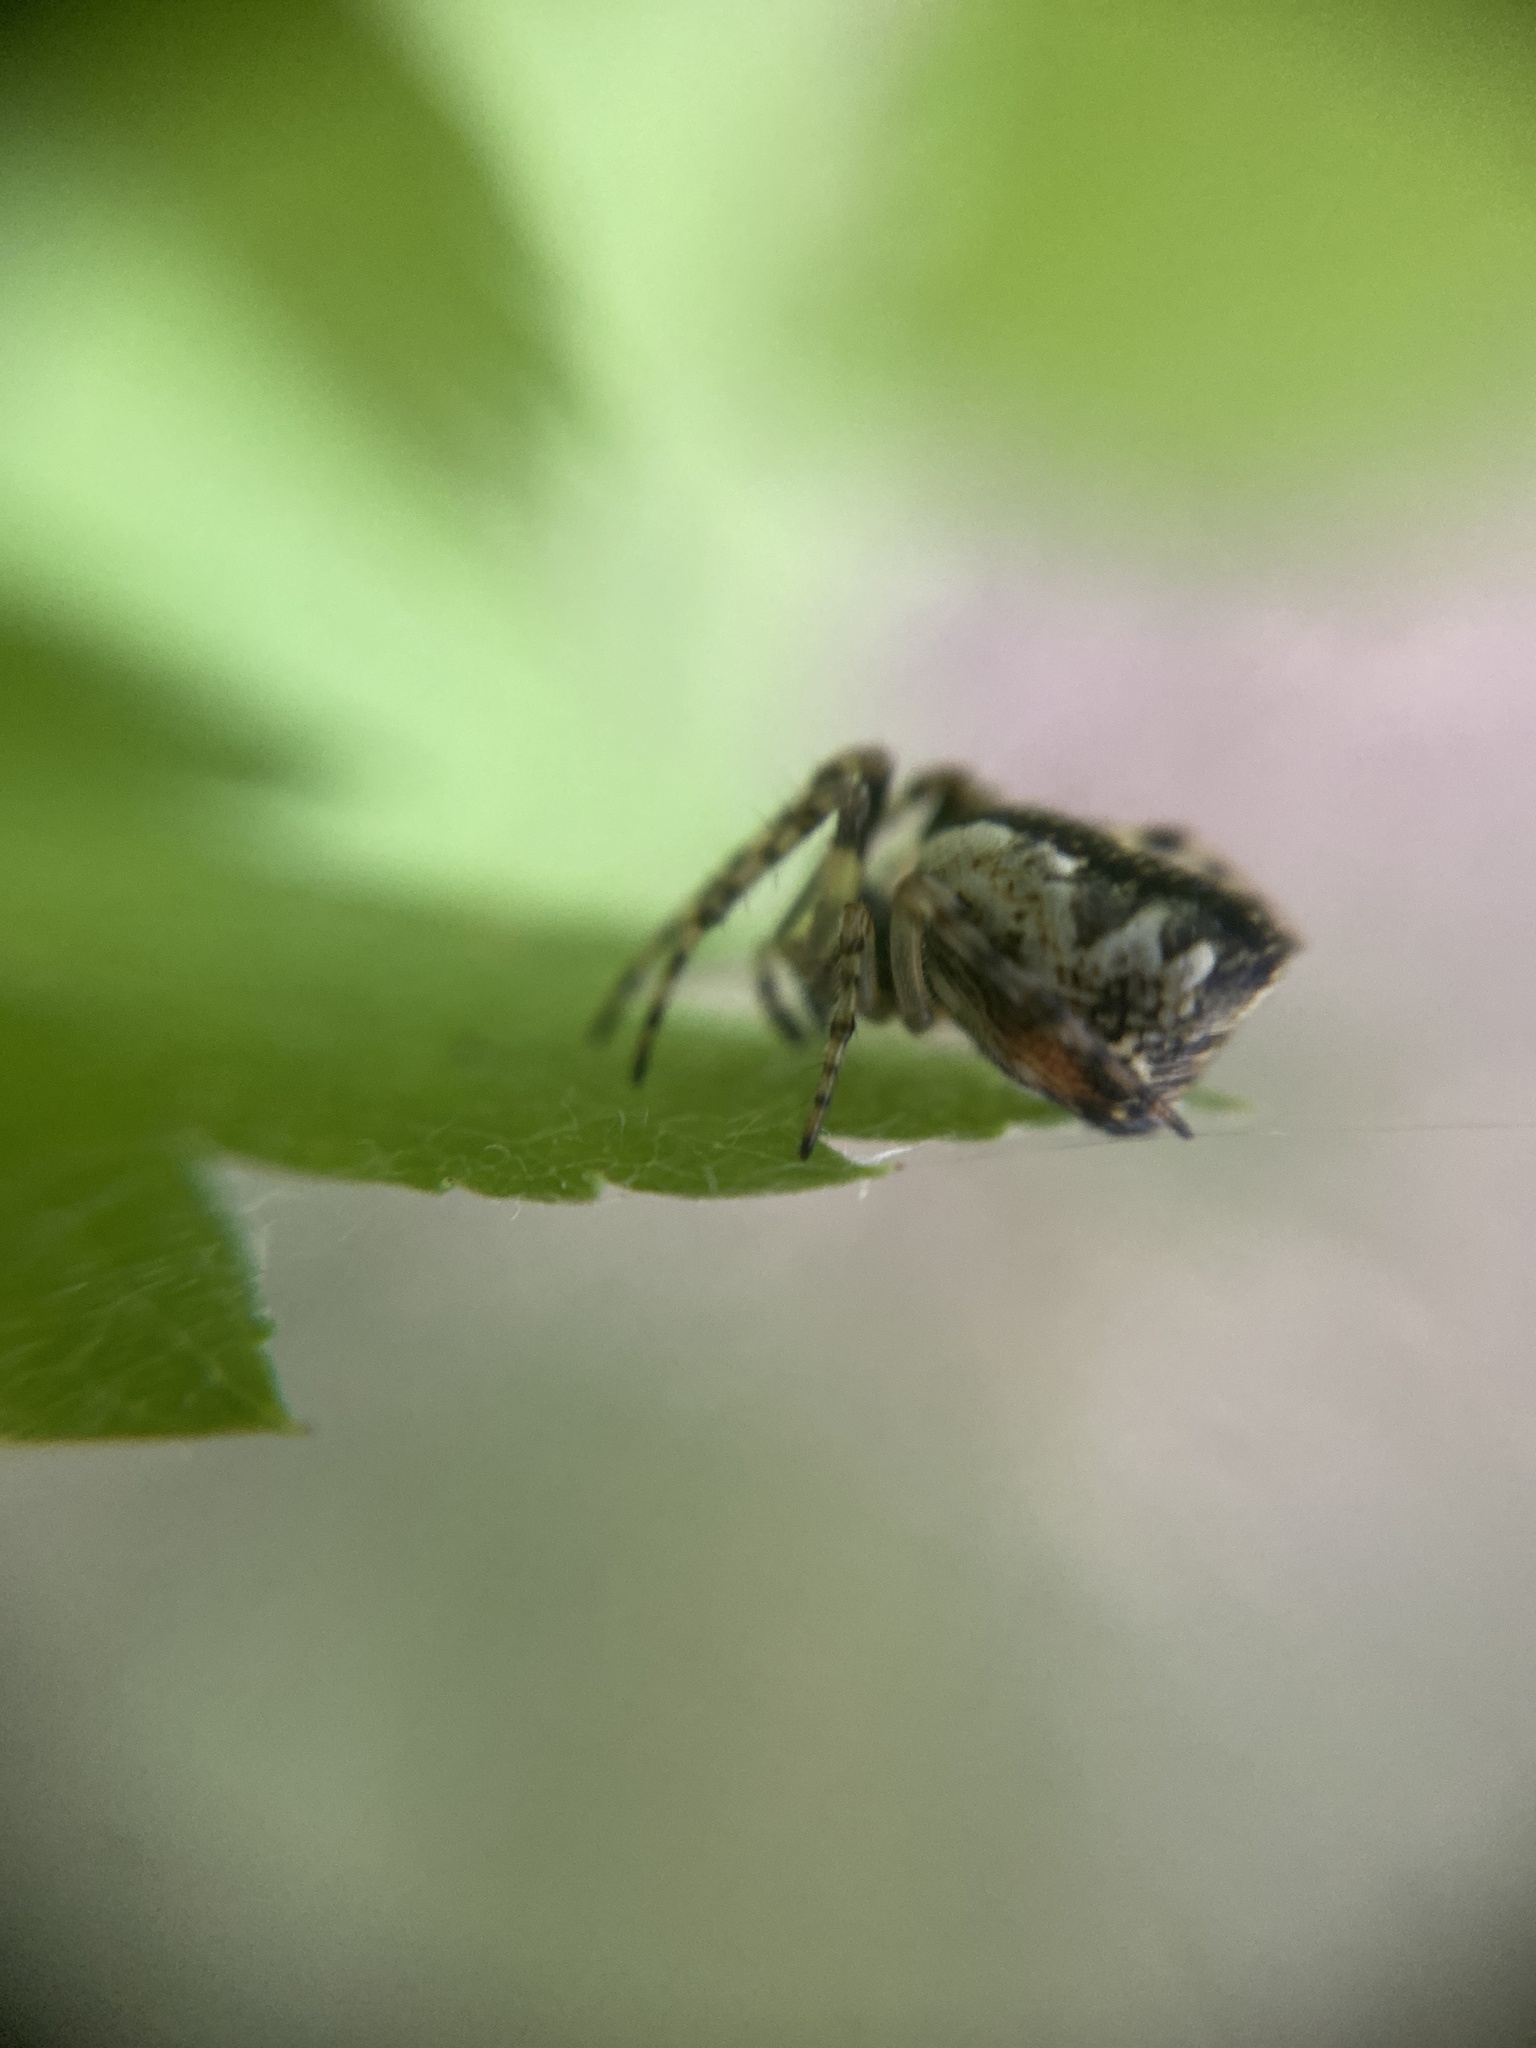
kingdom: Animalia
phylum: Arthropoda
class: Arachnida
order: Araneae
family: Araneidae
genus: Cyclosa
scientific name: Cyclosa conica
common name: Conical trashline orbweaver
